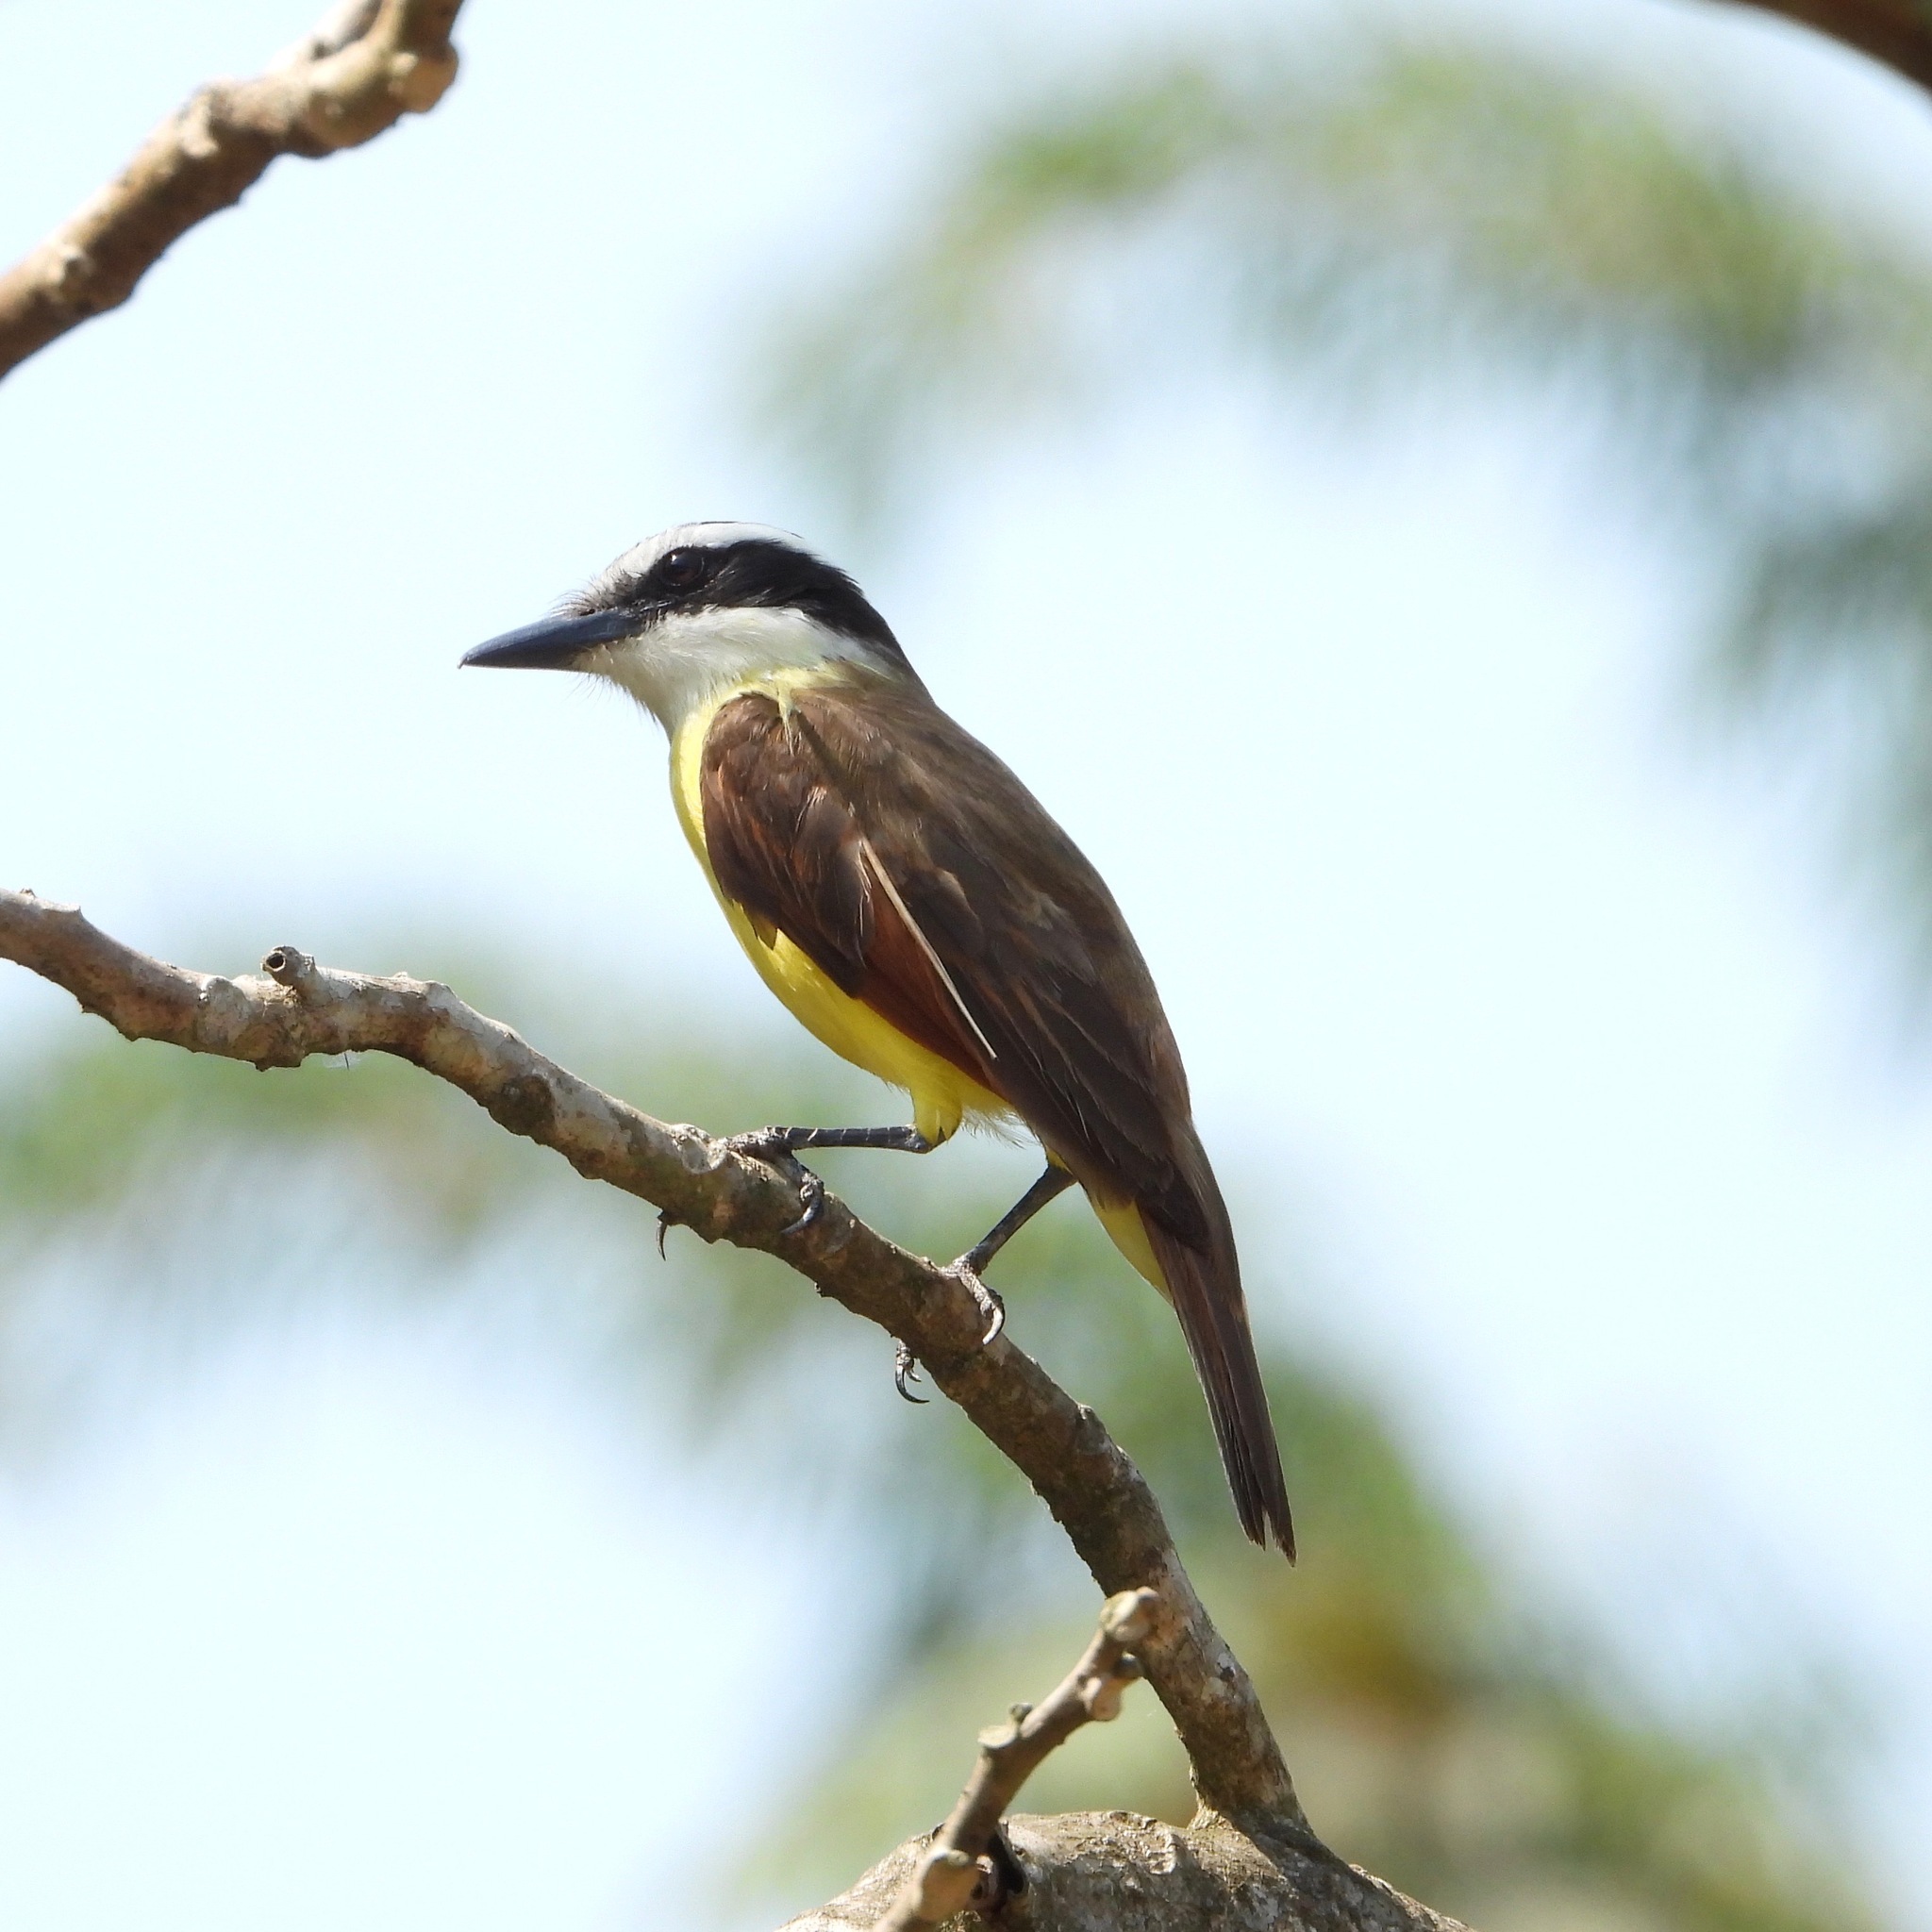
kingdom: Animalia
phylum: Chordata
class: Aves
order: Passeriformes
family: Tyrannidae
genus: Pitangus
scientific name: Pitangus sulphuratus
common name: Great kiskadee
